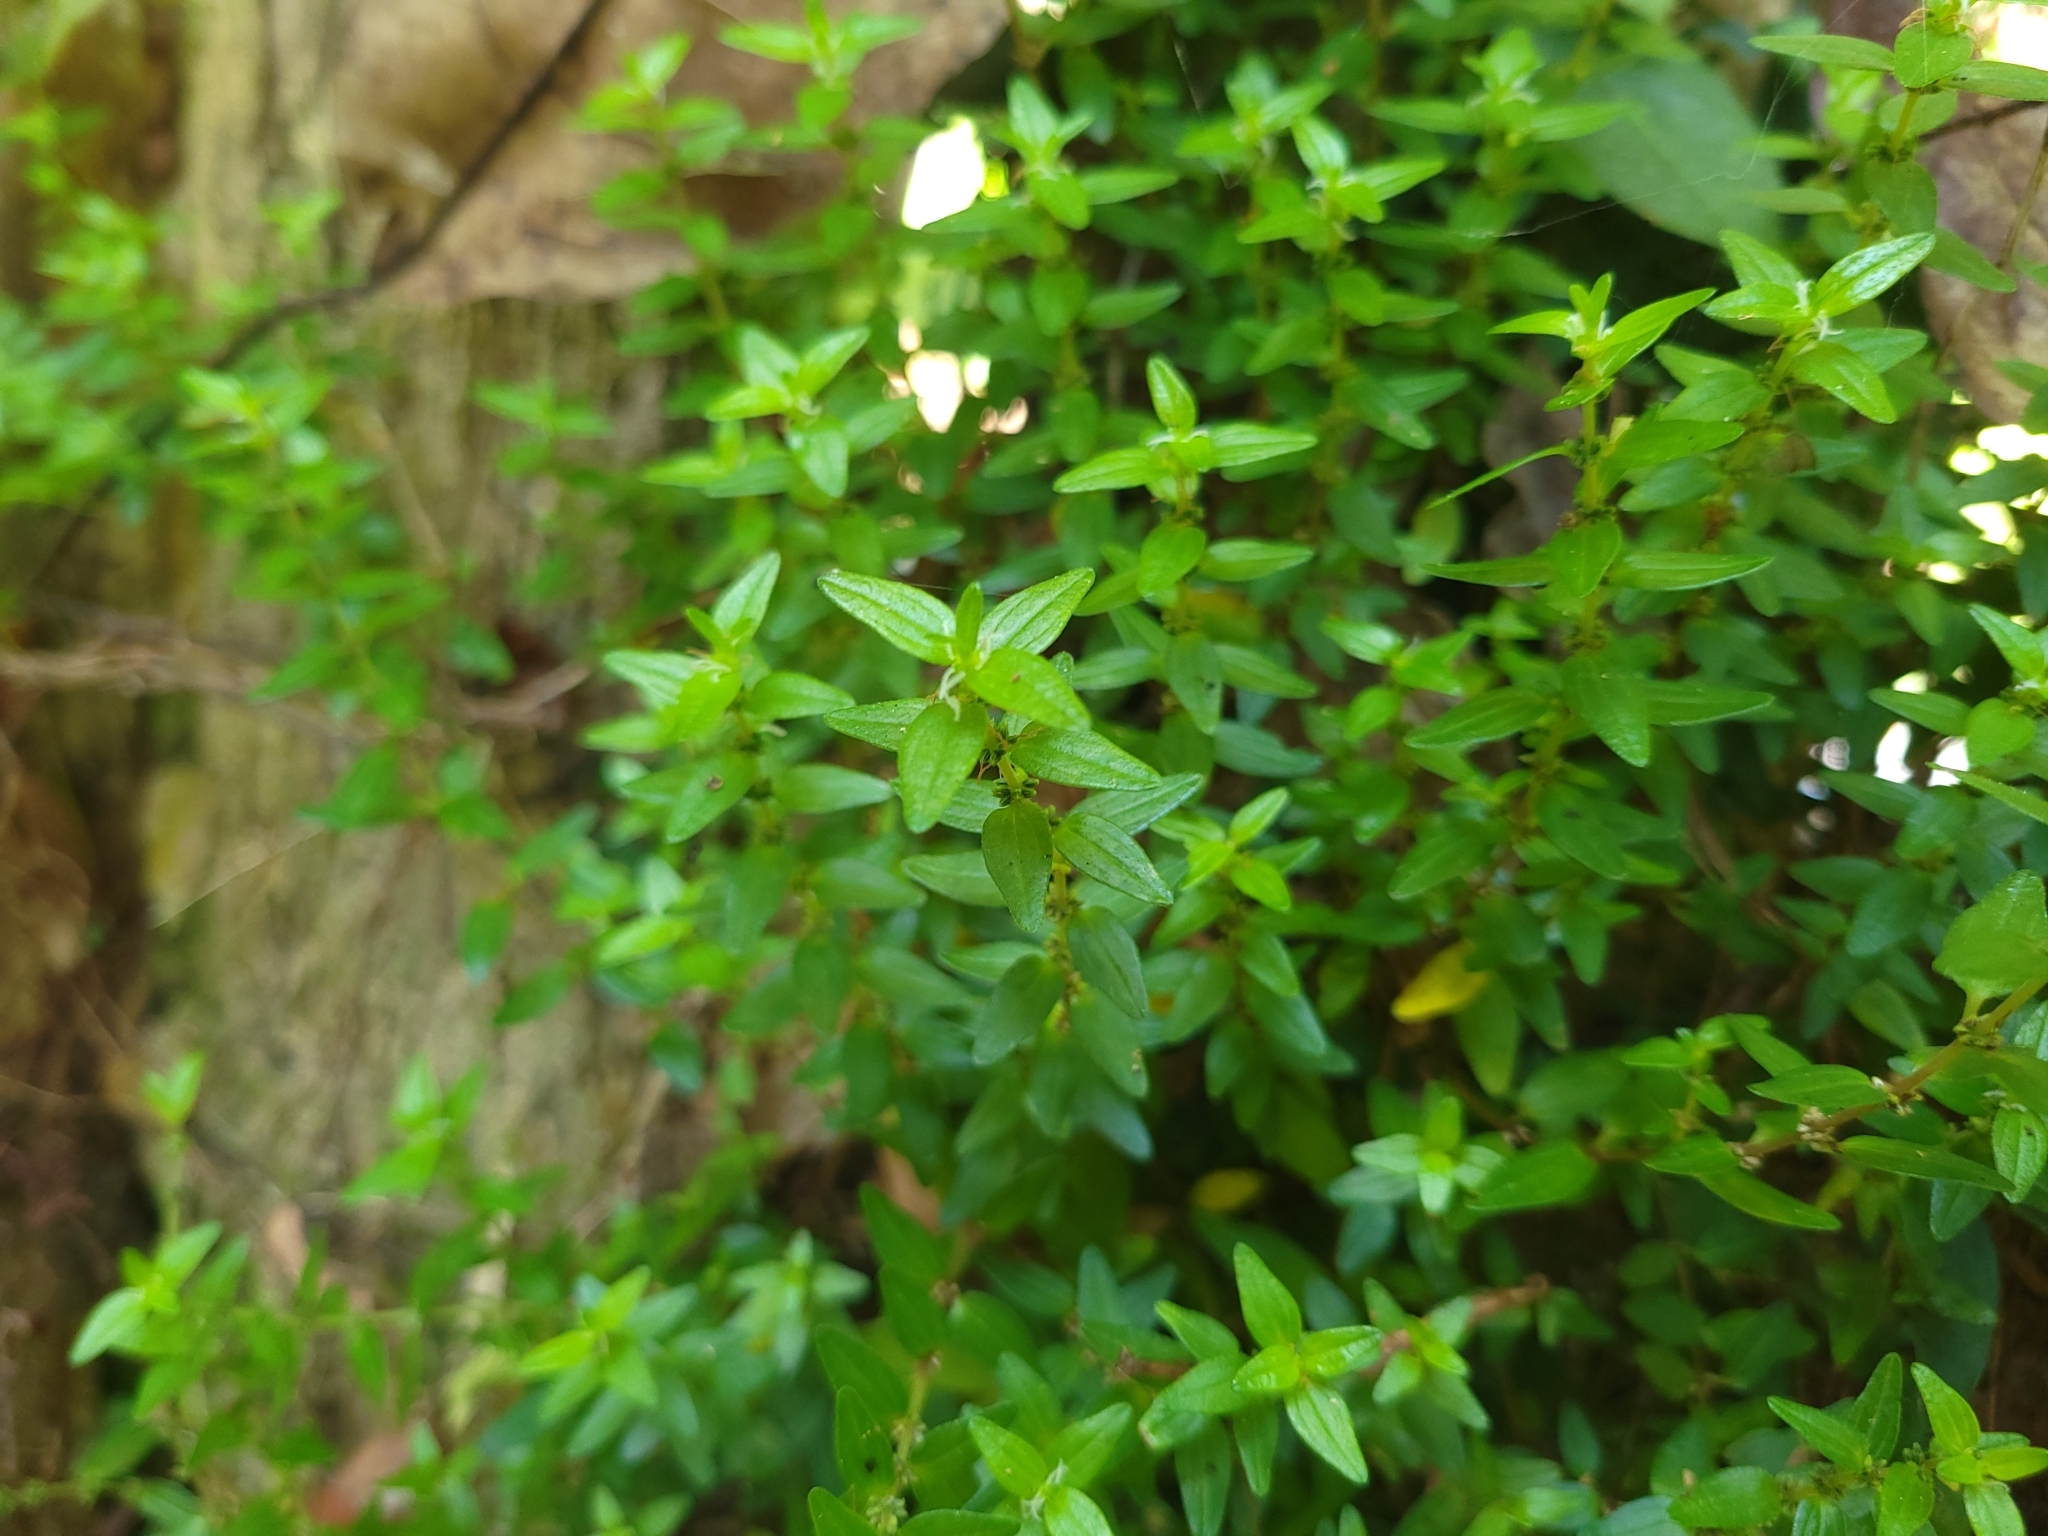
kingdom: Plantae
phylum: Tracheophyta
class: Magnoliopsida
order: Rosales
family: Urticaceae
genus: Pouzolzia
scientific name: Pouzolzia zeylanica
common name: Graceful pouzolzsbush
